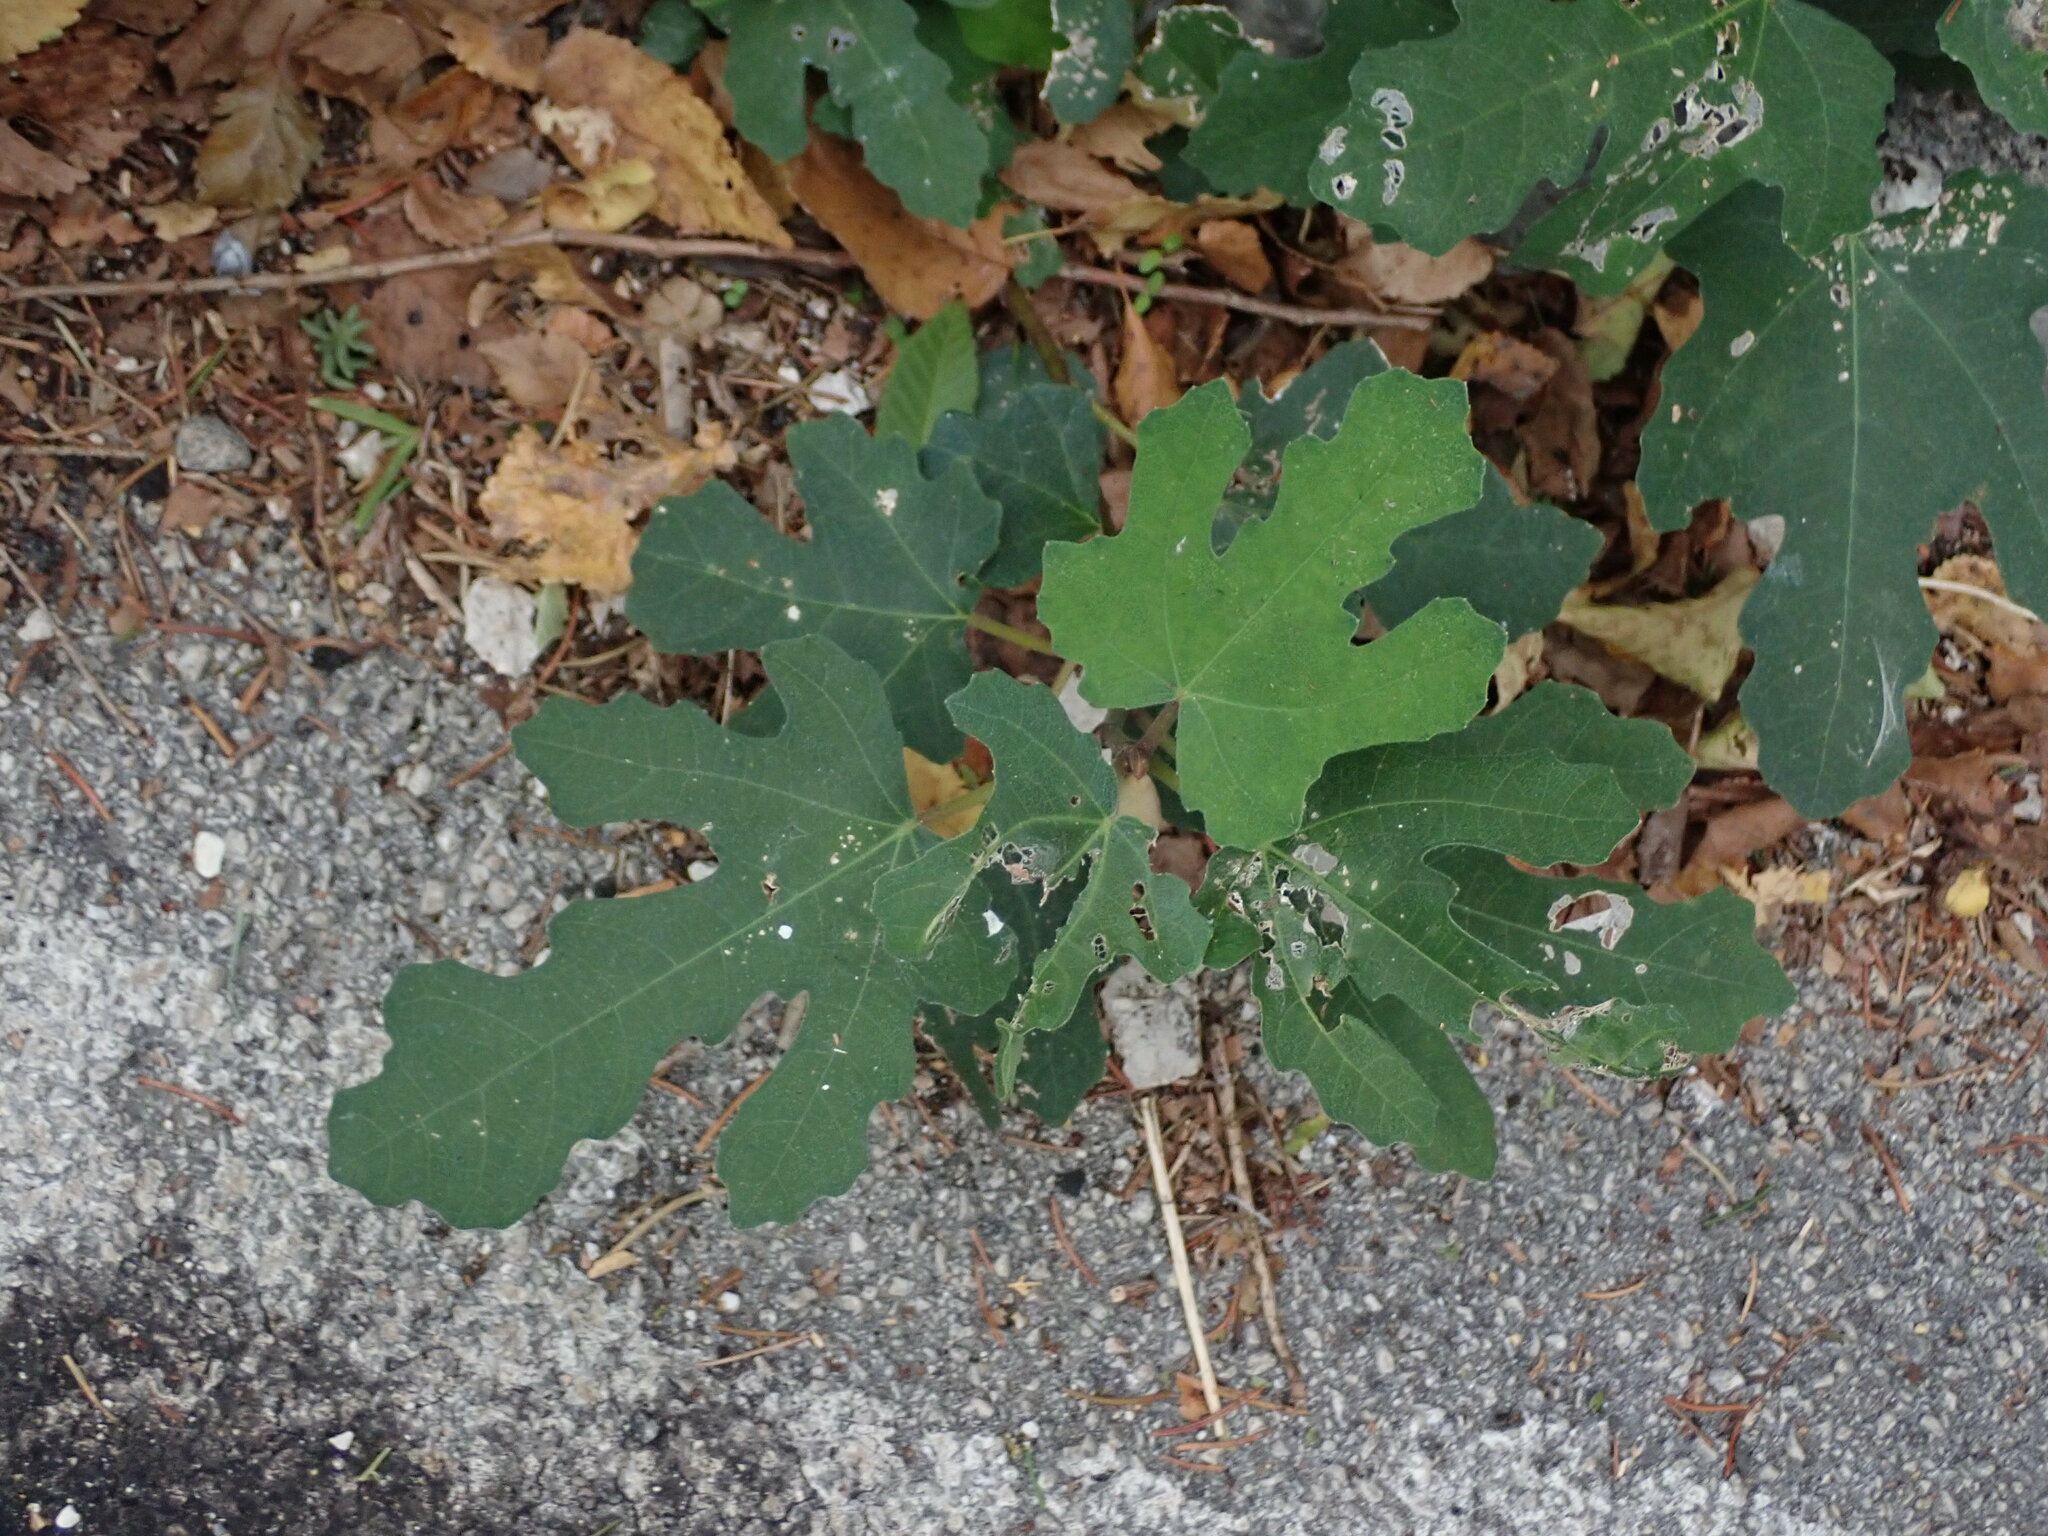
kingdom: Plantae
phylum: Tracheophyta
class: Magnoliopsida
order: Rosales
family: Moraceae
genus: Ficus
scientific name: Ficus carica
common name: Fig
